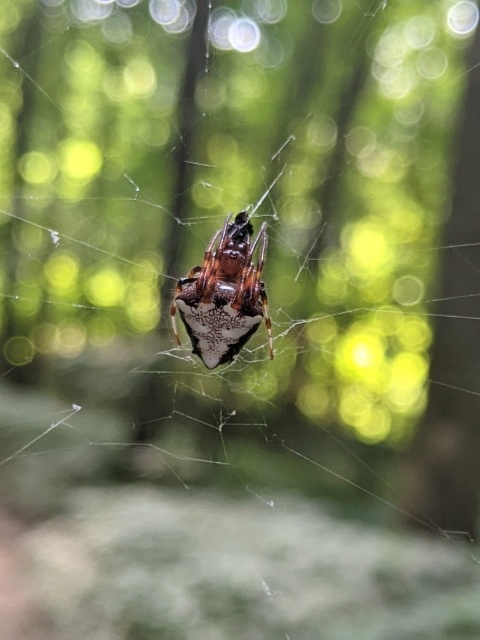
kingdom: Animalia
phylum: Arthropoda
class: Arachnida
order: Araneae
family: Araneidae
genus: Verrucosa
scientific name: Verrucosa arenata
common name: Orb weavers
